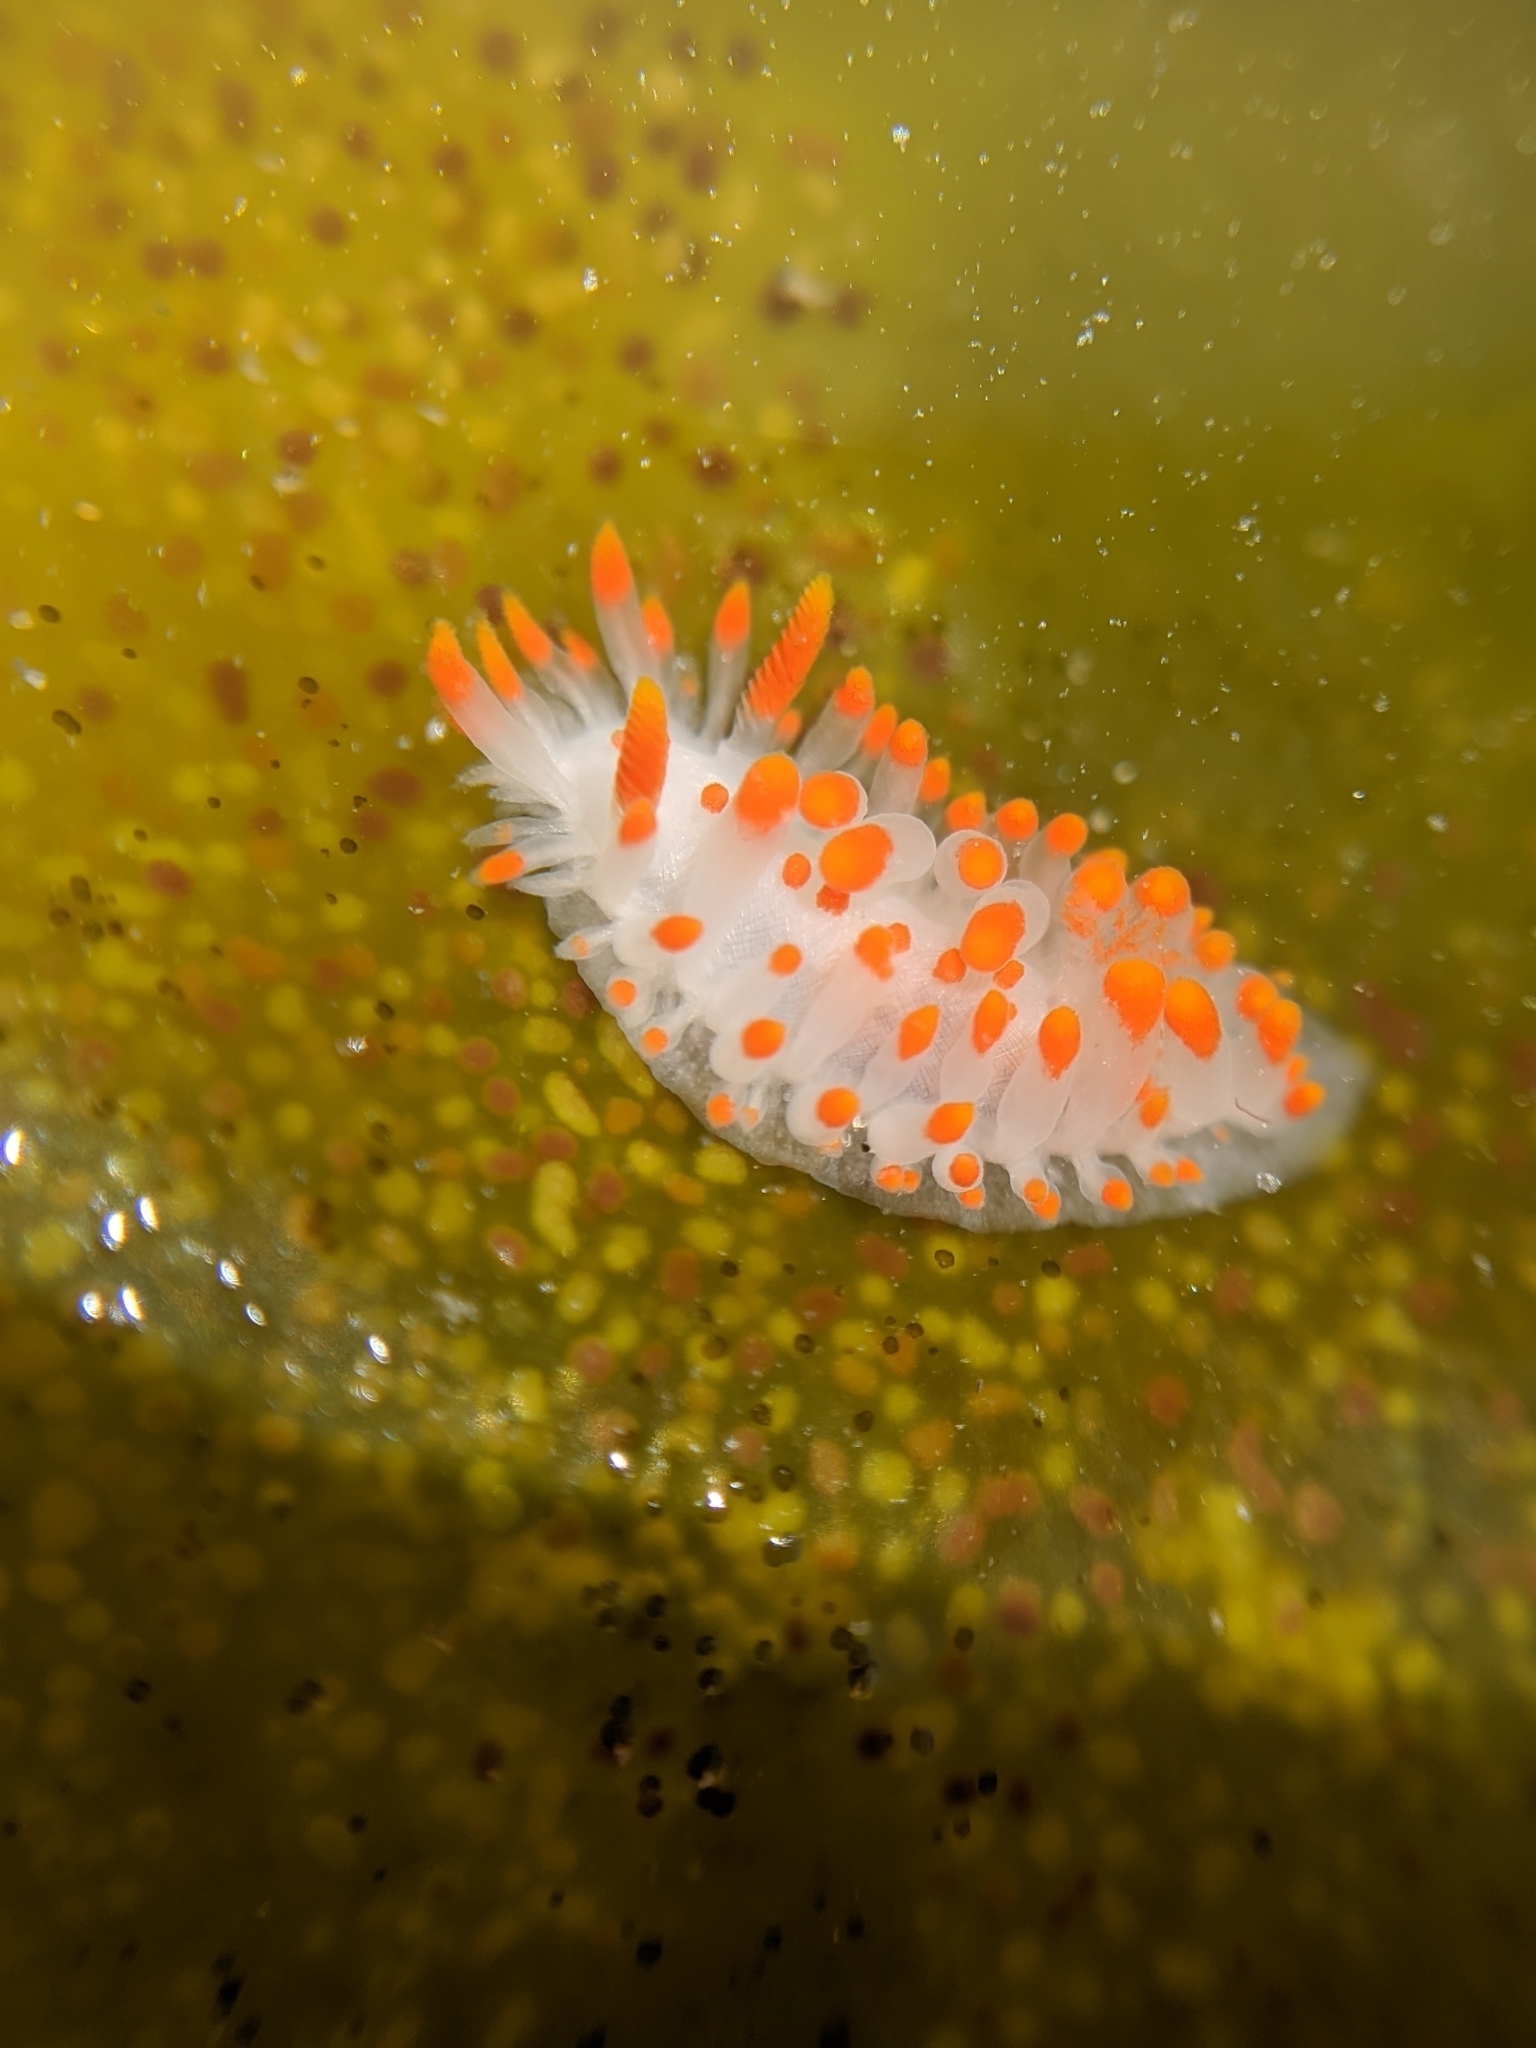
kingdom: Animalia
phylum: Mollusca
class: Gastropoda
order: Nudibranchia
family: Polyceridae
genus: Limacia
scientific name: Limacia mcdonaldi
